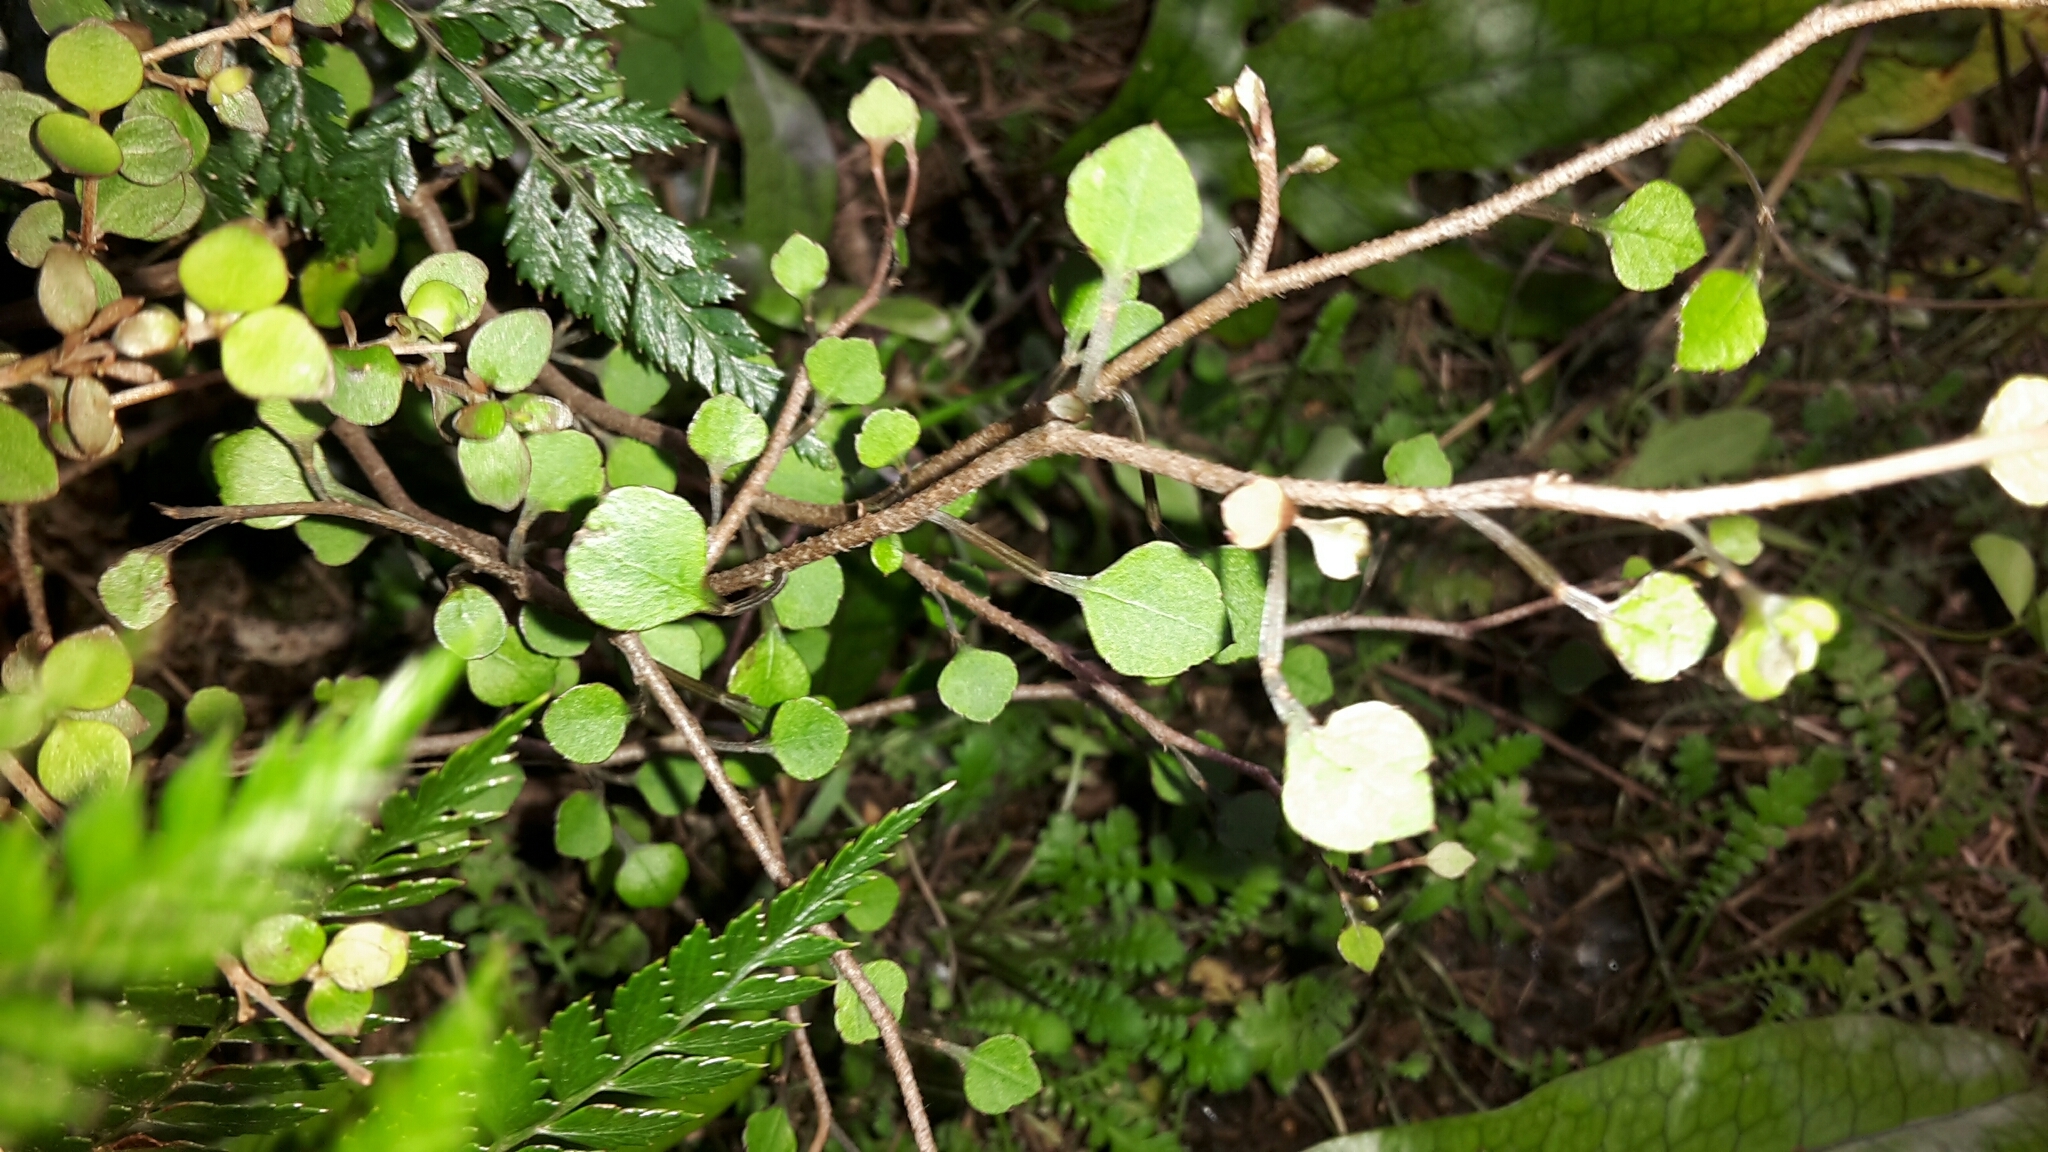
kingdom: Plantae
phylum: Tracheophyta
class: Magnoliopsida
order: Apiales
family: Araliaceae
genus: Raukaua
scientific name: Raukaua anomalus
